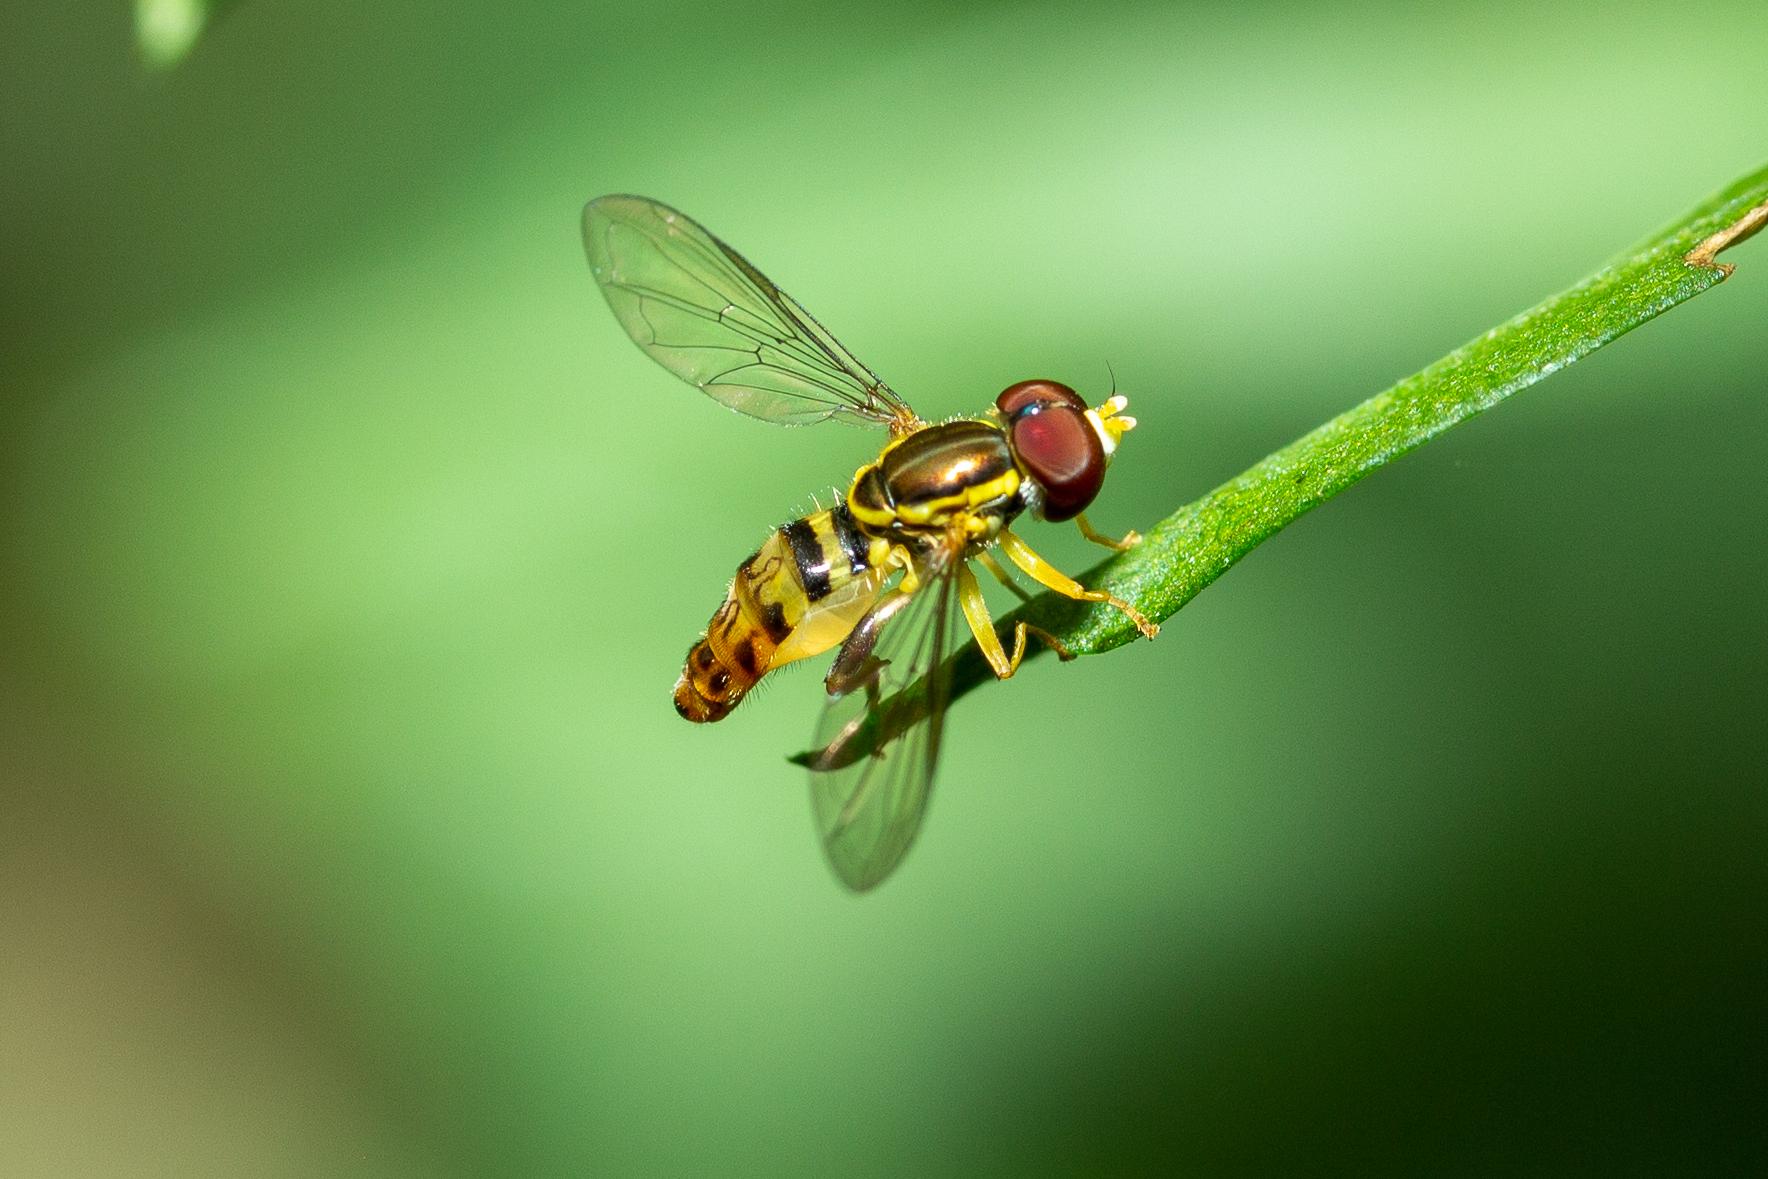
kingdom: Animalia
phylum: Arthropoda
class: Insecta
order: Diptera
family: Syrphidae
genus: Toxomerus
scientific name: Toxomerus geminatus
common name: Eastern calligrapher
